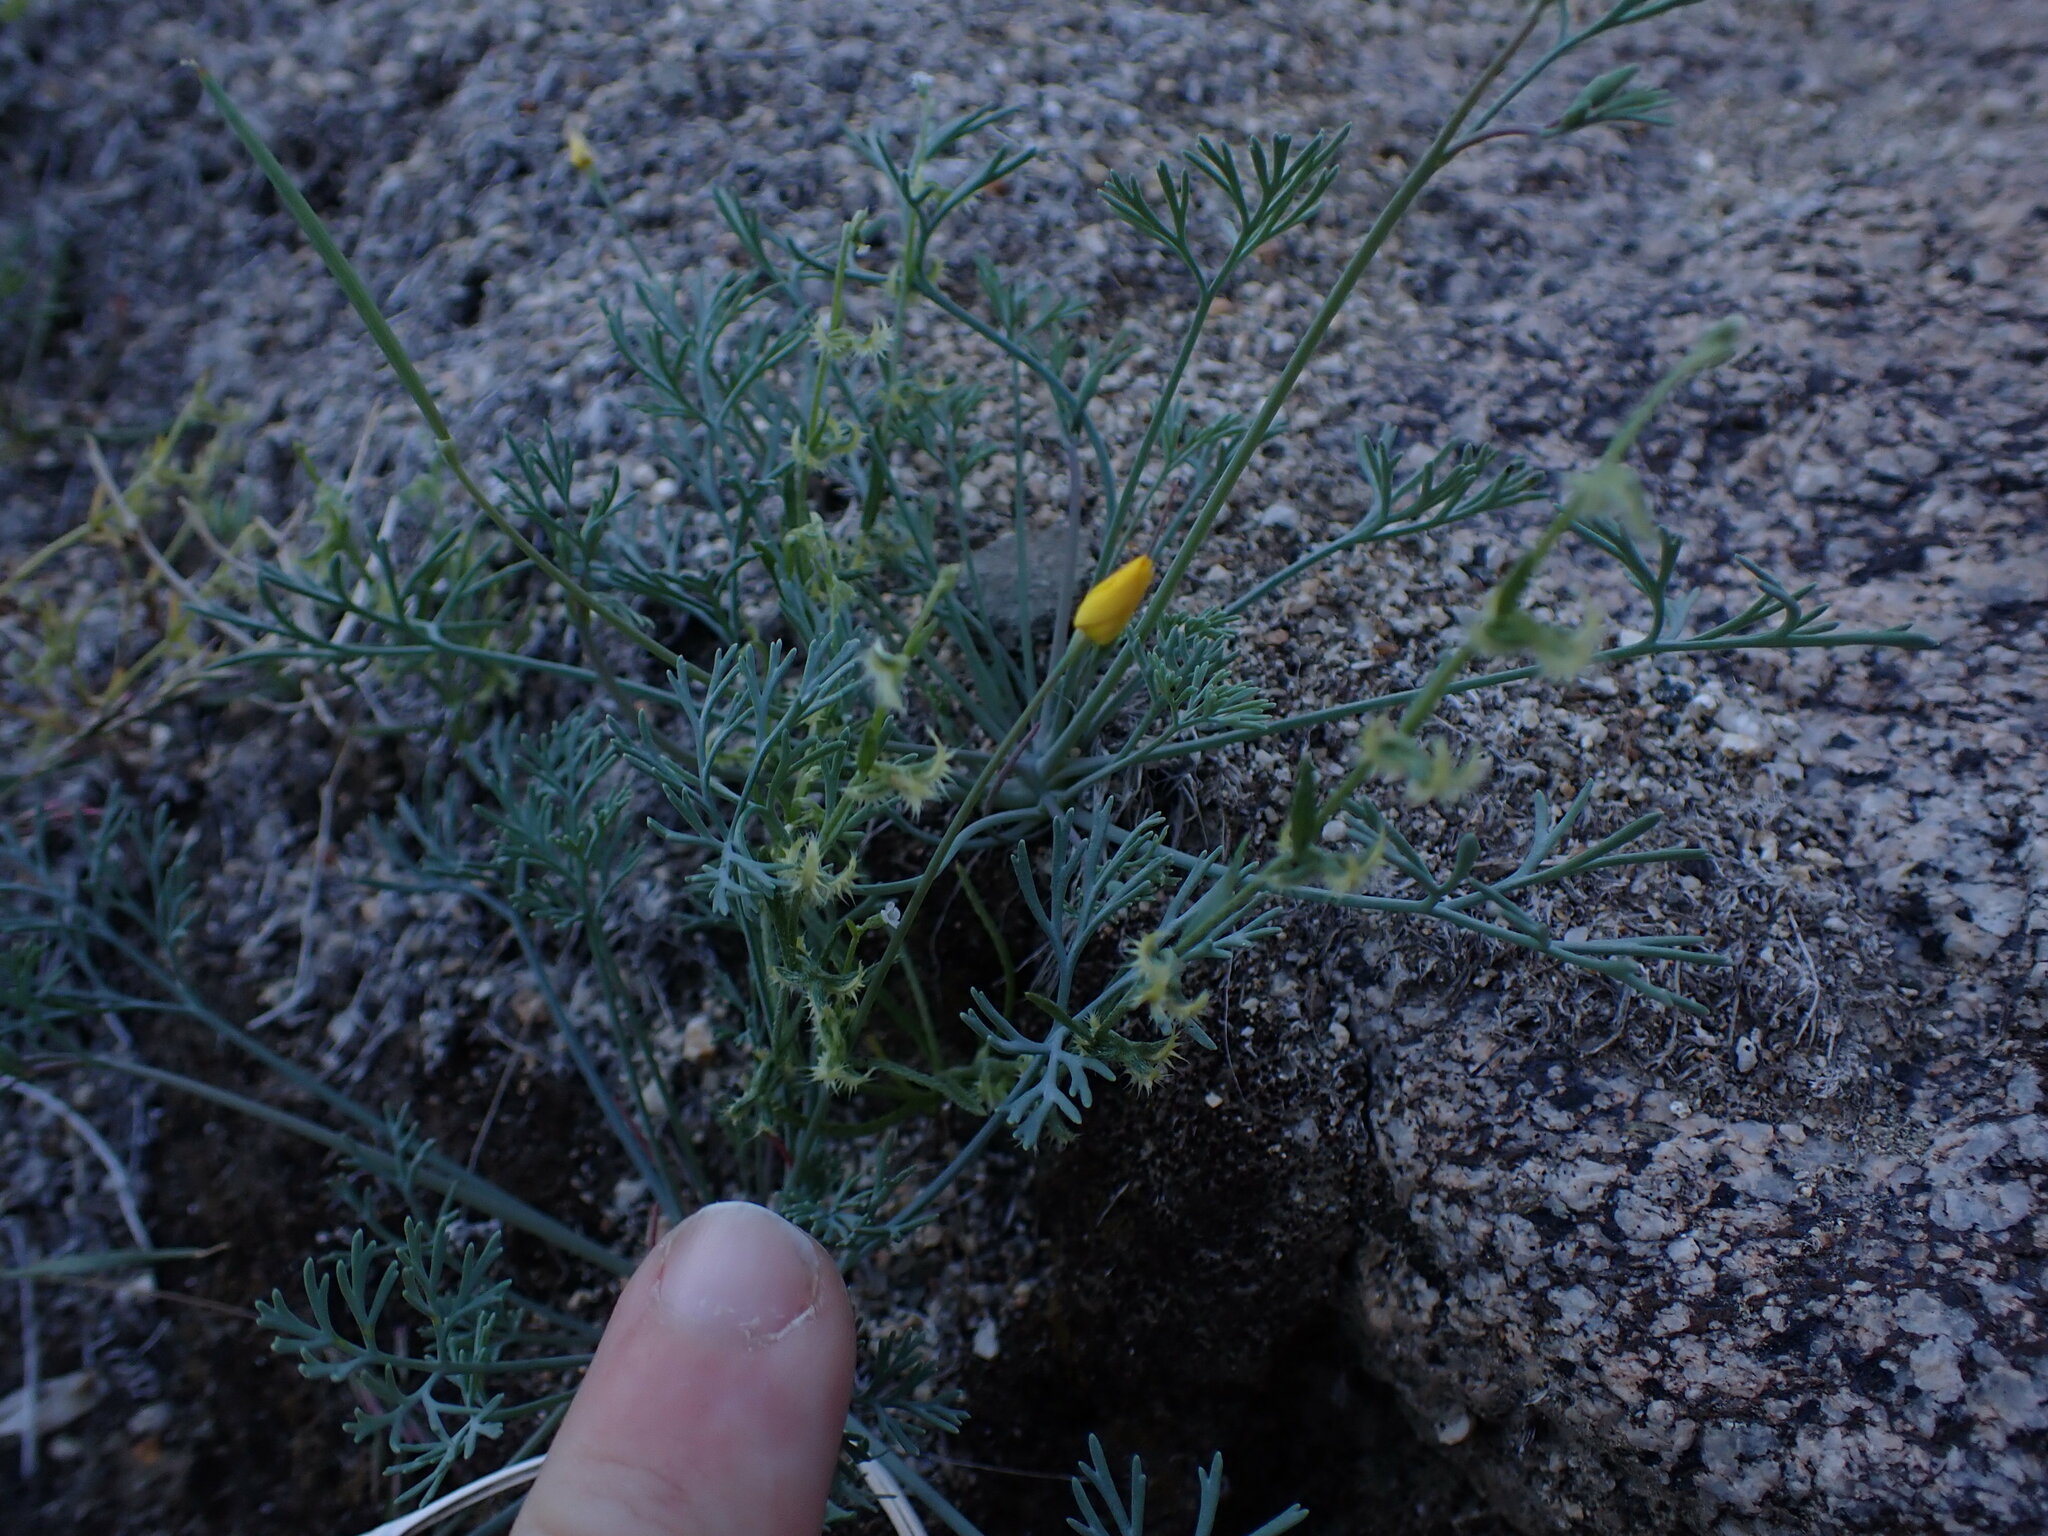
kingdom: Plantae
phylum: Tracheophyta
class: Magnoliopsida
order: Ranunculales
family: Papaveraceae
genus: Eschscholzia
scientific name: Eschscholzia minutiflora
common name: Small-flower california-poppy
